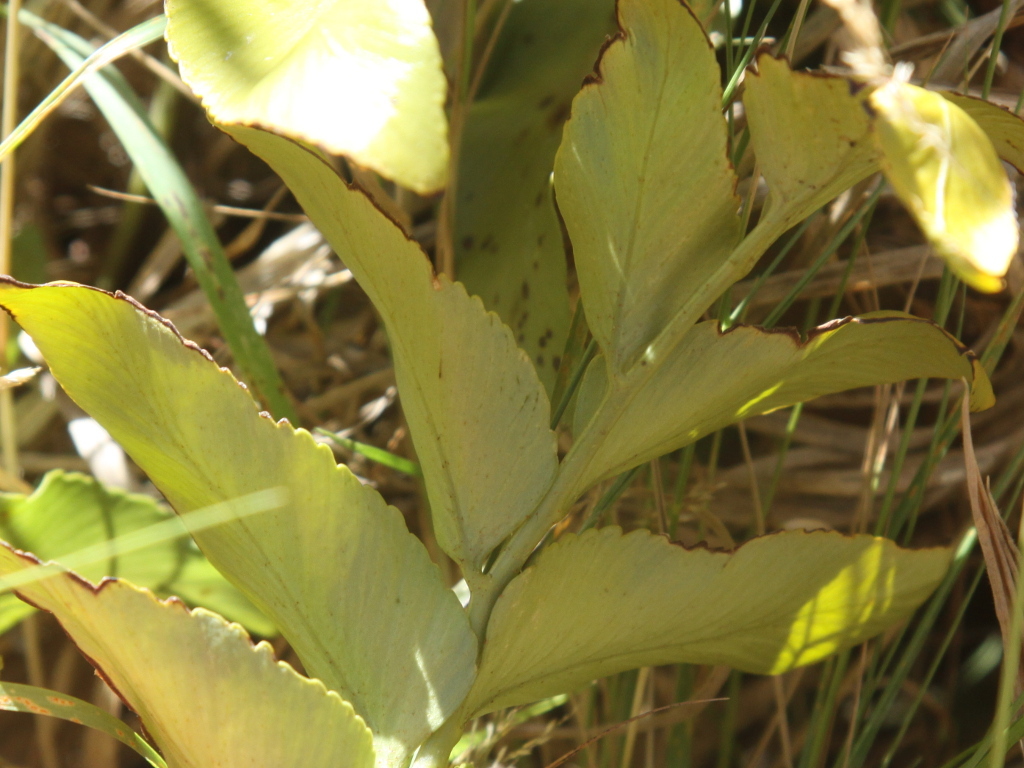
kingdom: Plantae
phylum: Tracheophyta
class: Polypodiopsida
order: Polypodiales
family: Aspleniaceae
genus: Asplenium
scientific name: Asplenium oblongifolium
